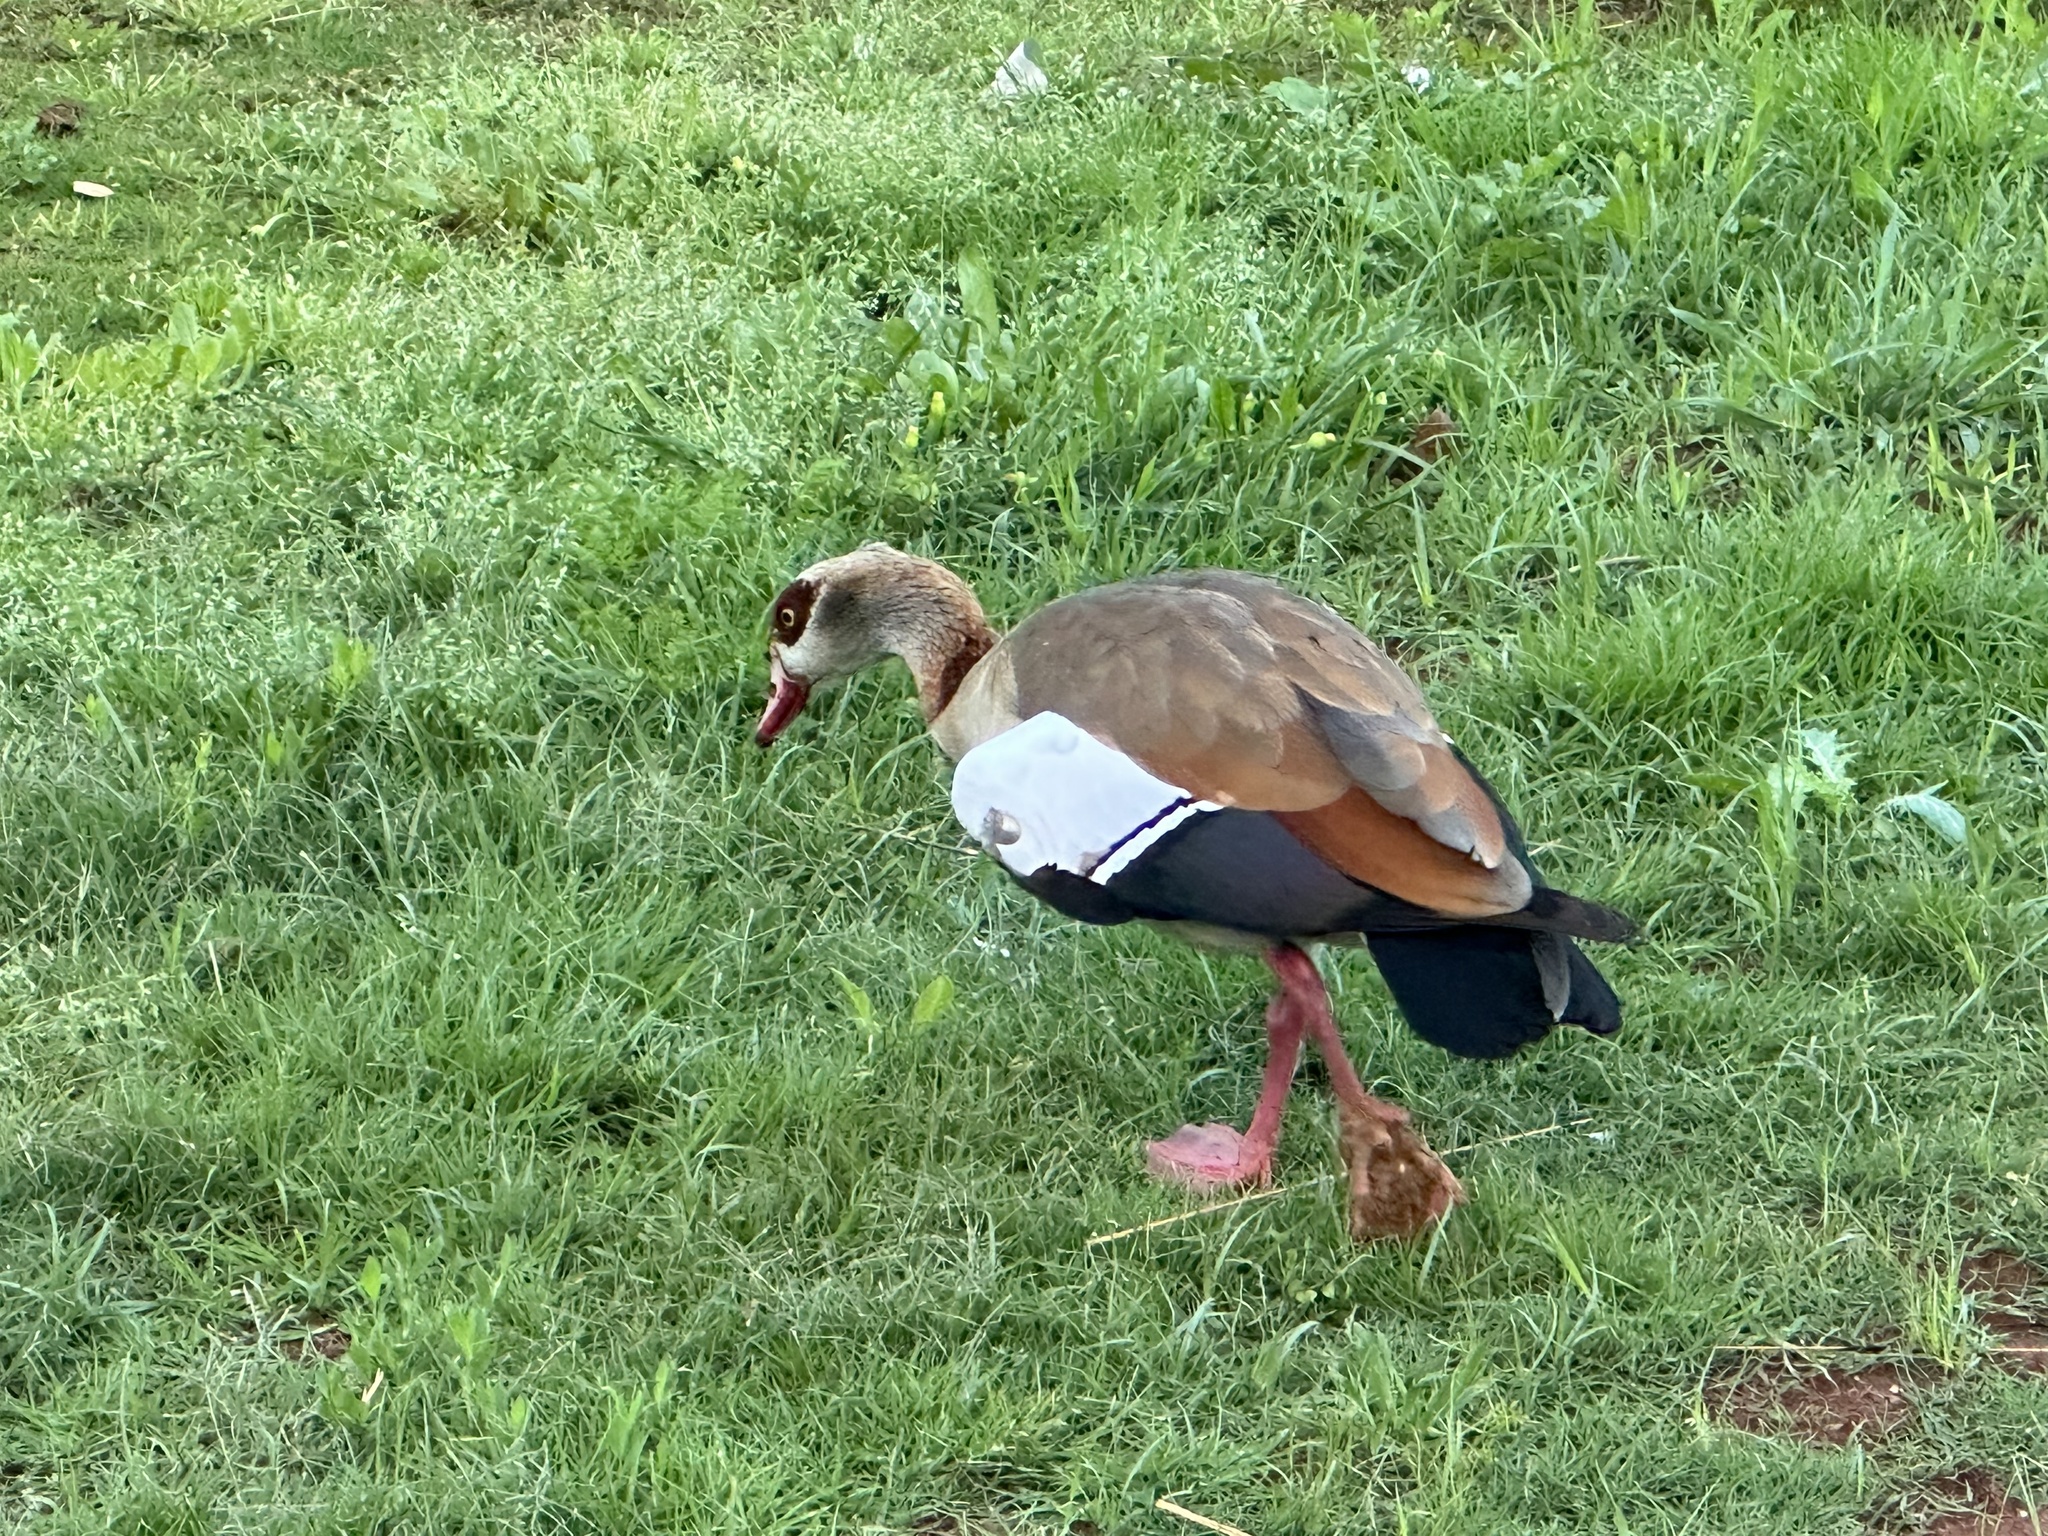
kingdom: Animalia
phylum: Chordata
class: Aves
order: Anseriformes
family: Anatidae
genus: Alopochen
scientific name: Alopochen aegyptiaca
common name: Egyptian goose
